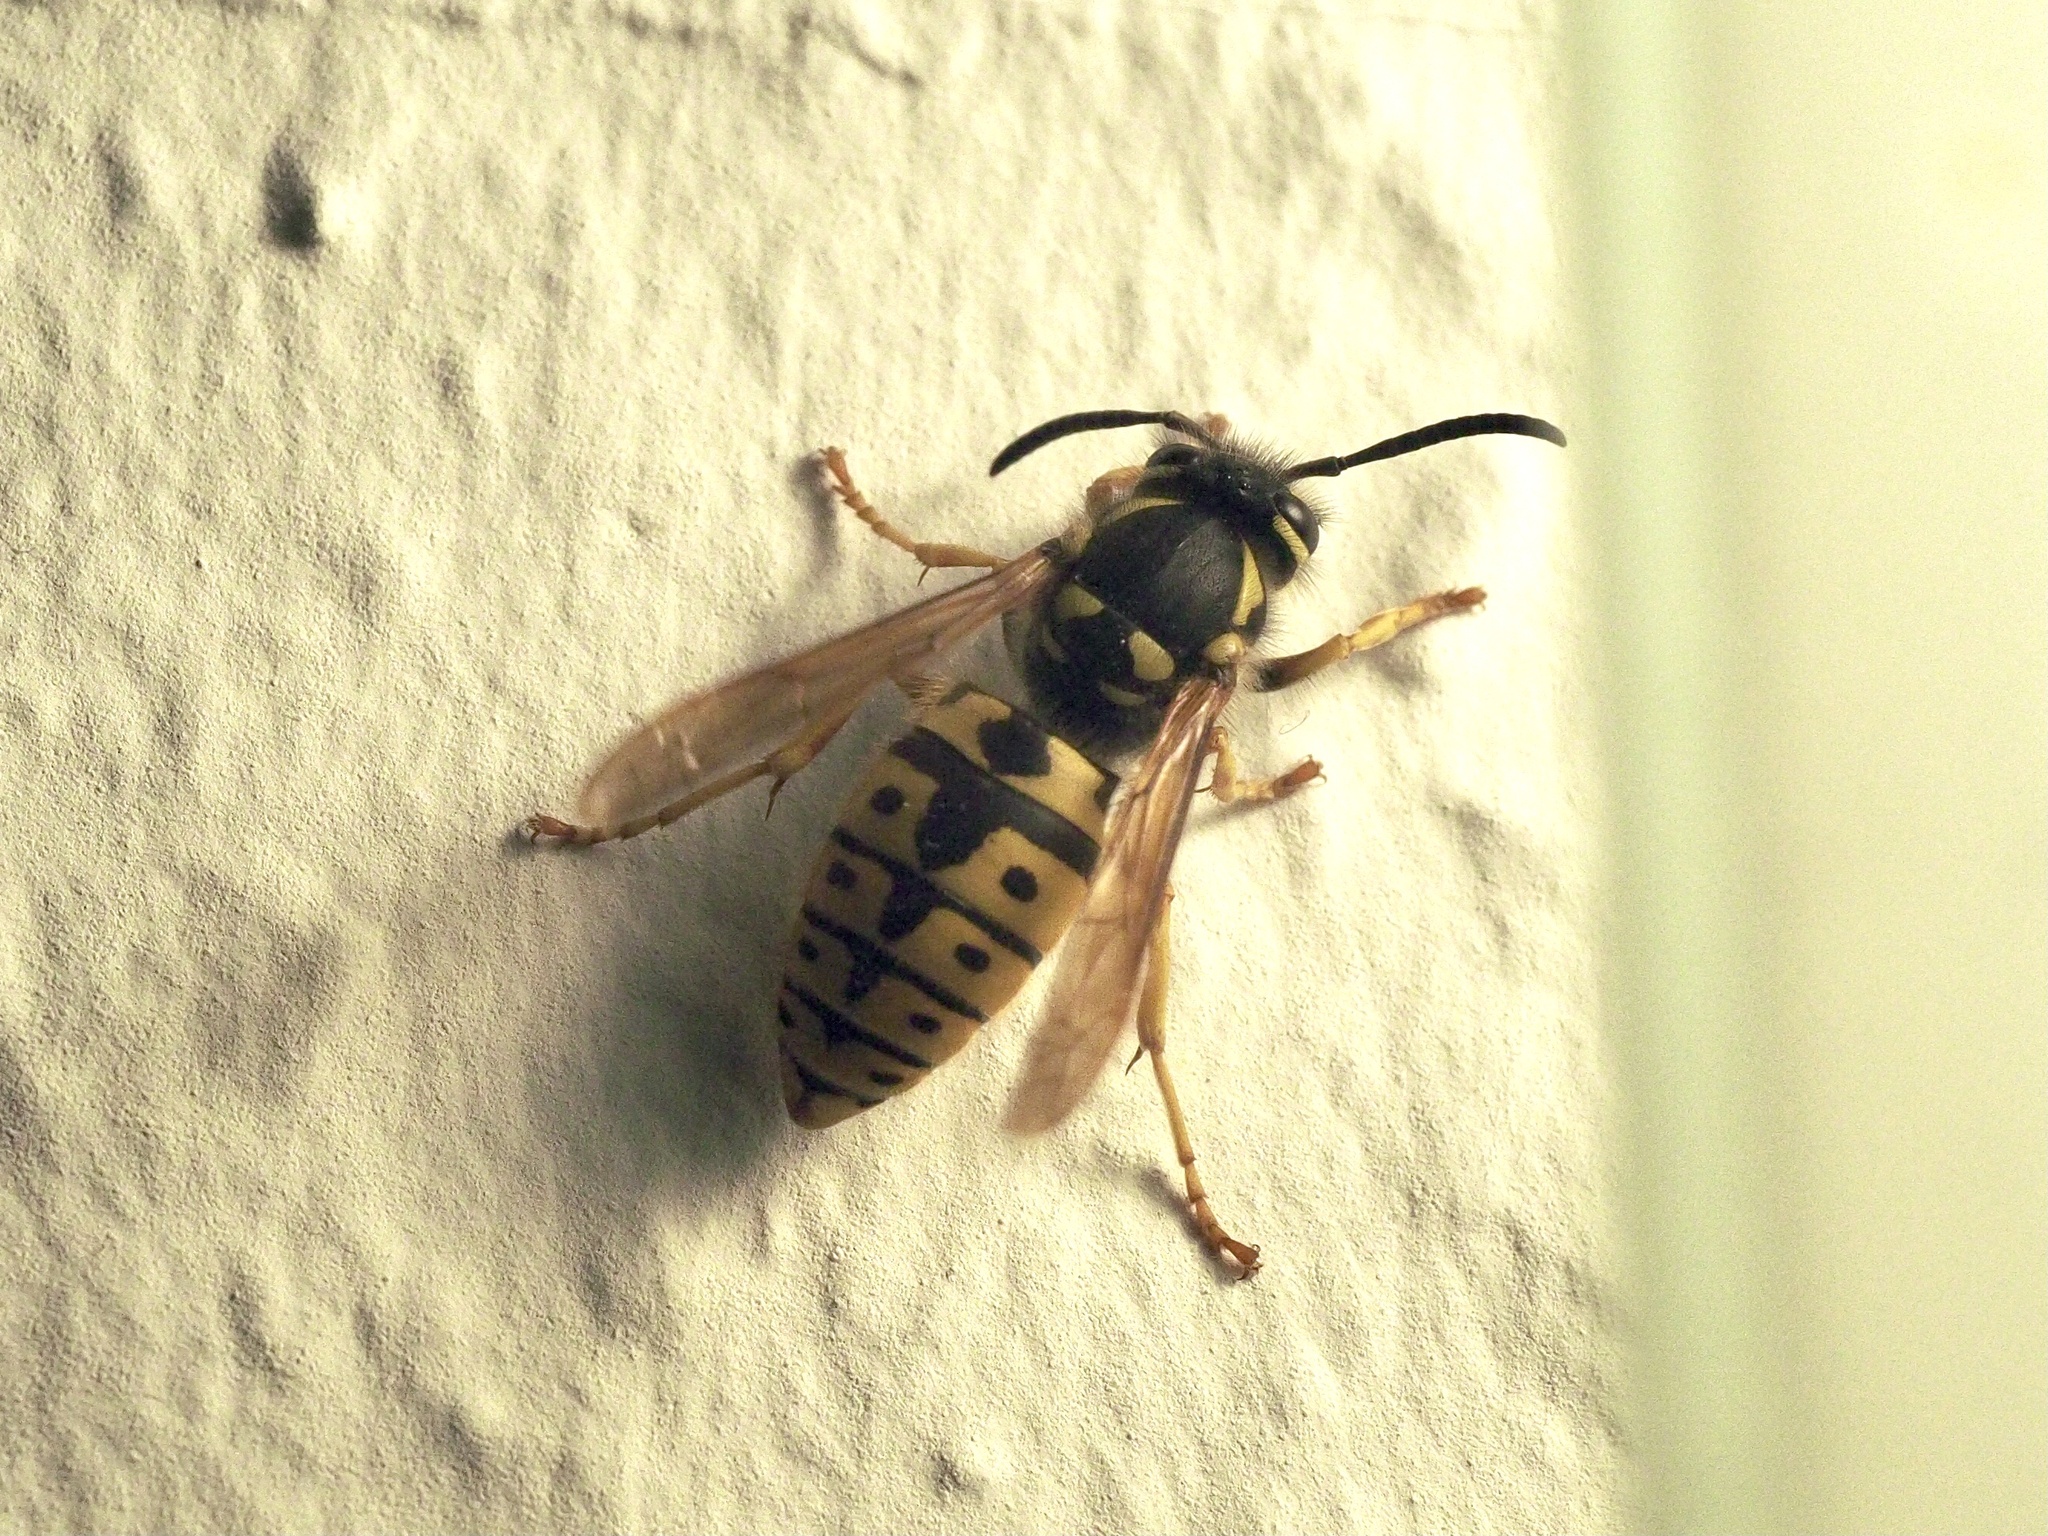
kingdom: Animalia
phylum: Arthropoda
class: Insecta
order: Hymenoptera
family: Vespidae
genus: Vespula
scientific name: Vespula germanica
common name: German wasp
